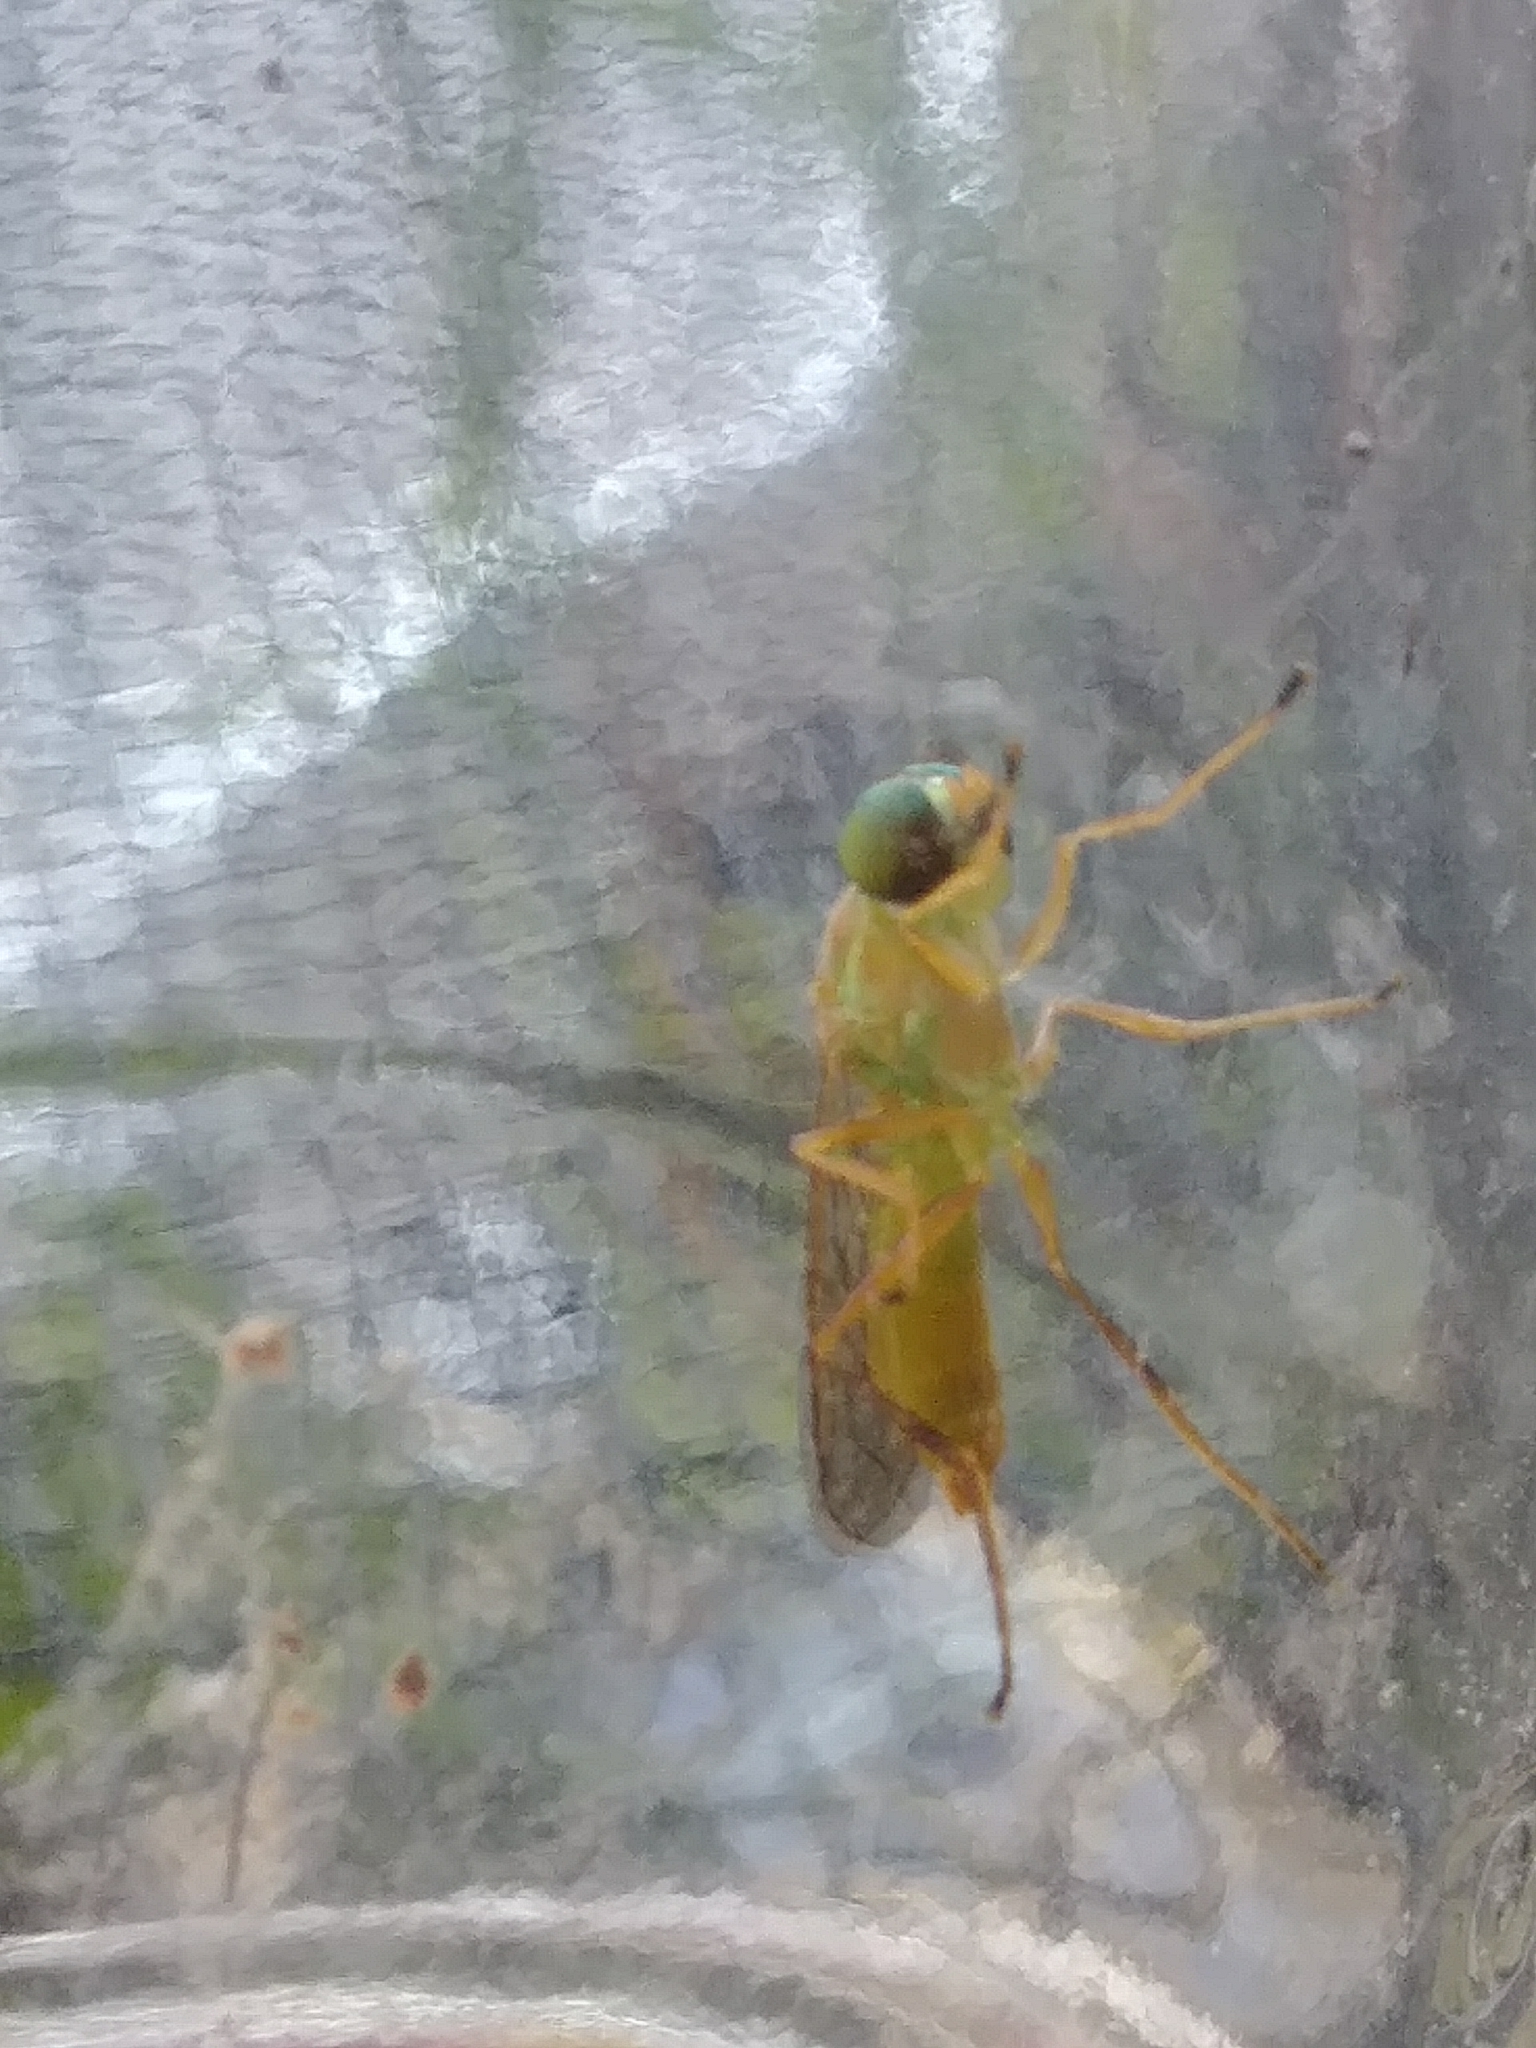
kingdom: Animalia
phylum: Arthropoda
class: Insecta
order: Diptera
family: Stratiomyidae
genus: Ptecticus
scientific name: Ptecticus trivittatus
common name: Compost fly
